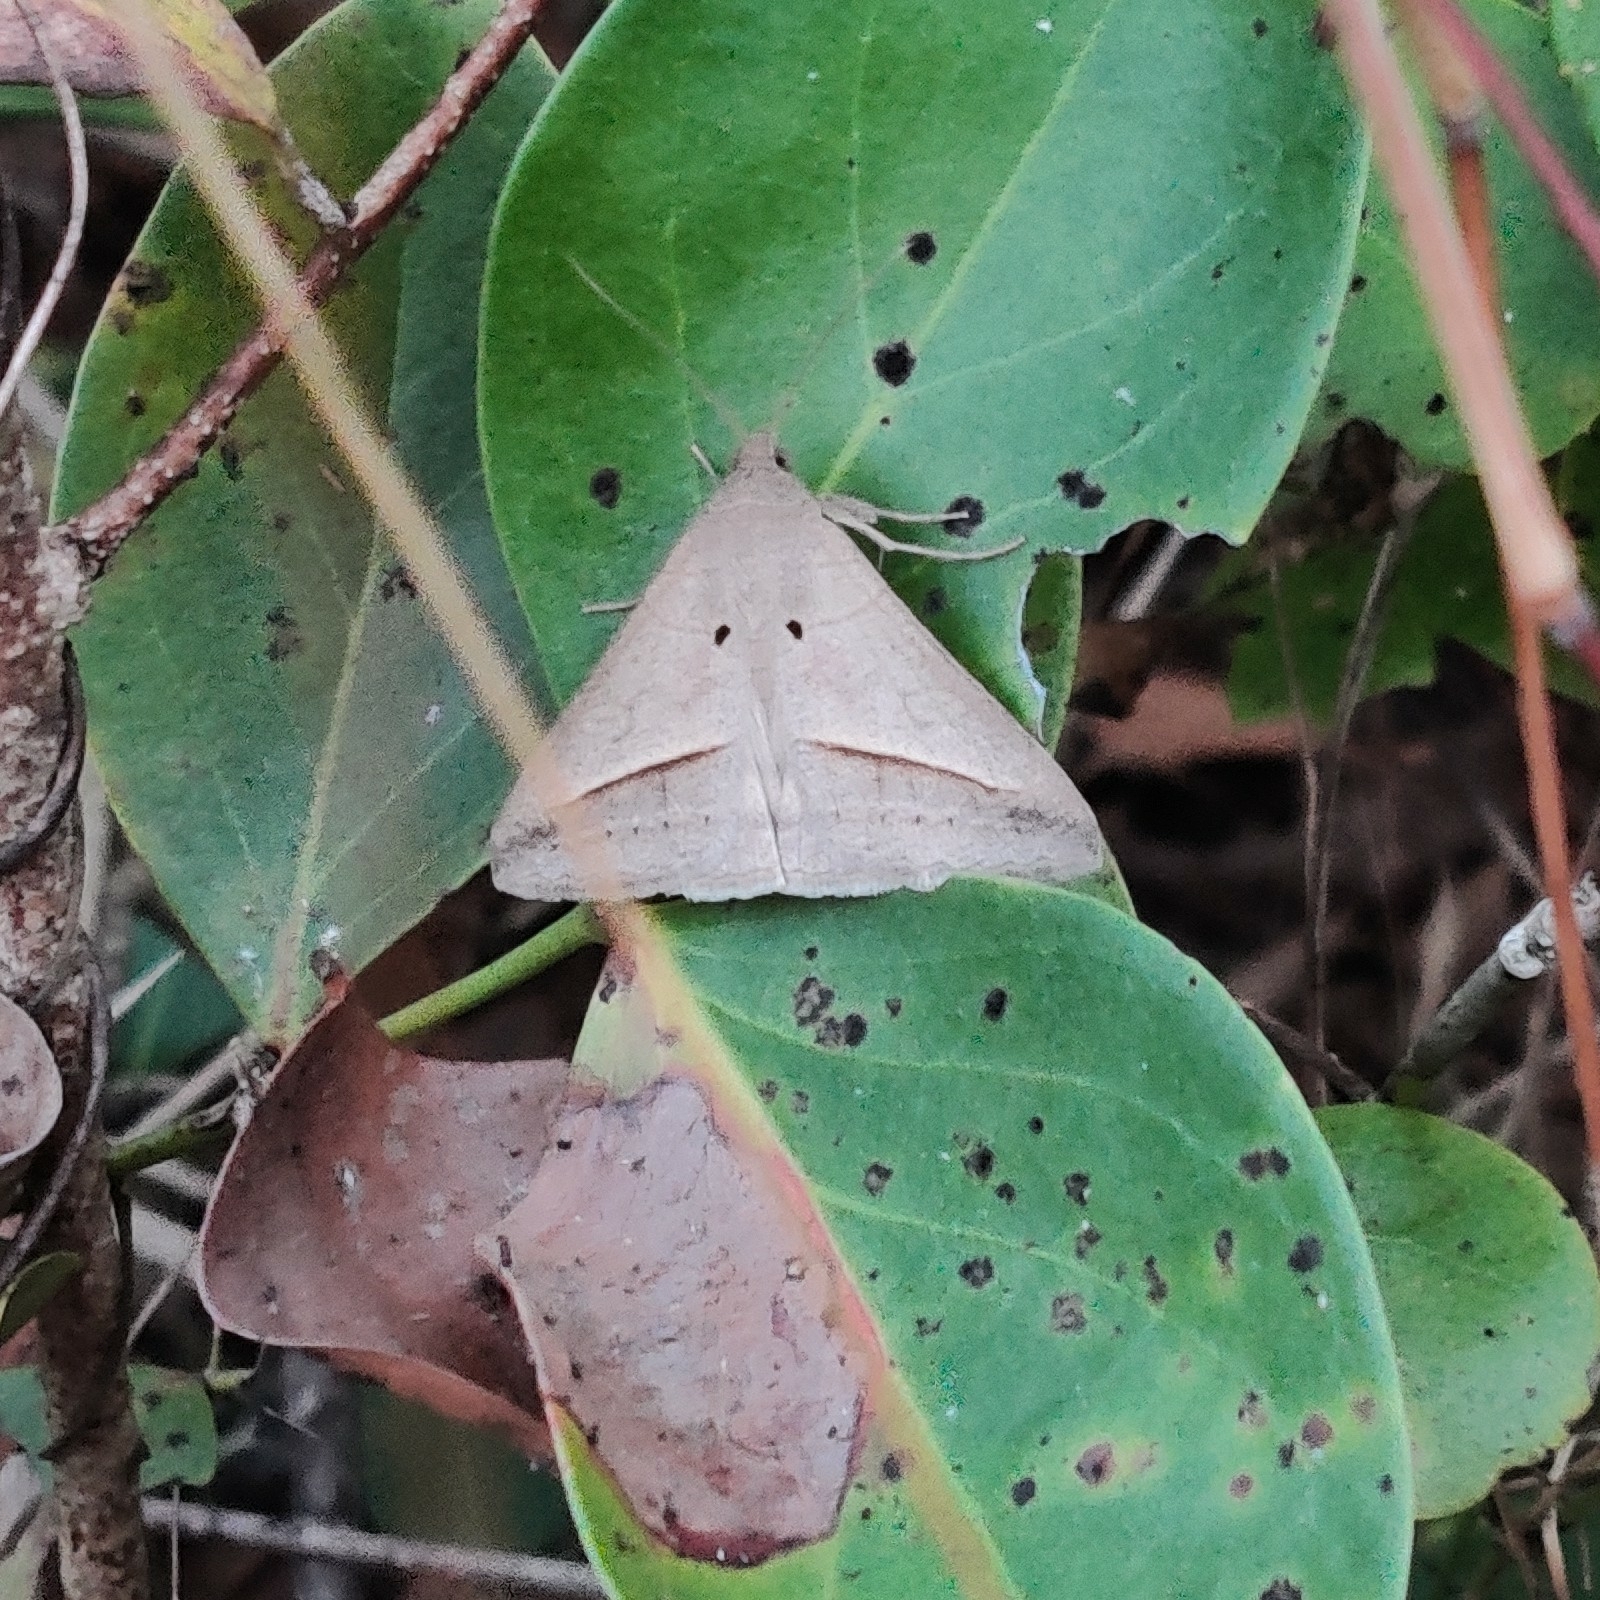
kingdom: Animalia
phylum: Arthropoda
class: Insecta
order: Lepidoptera
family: Erebidae
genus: Mocis
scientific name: Mocis frugalis
